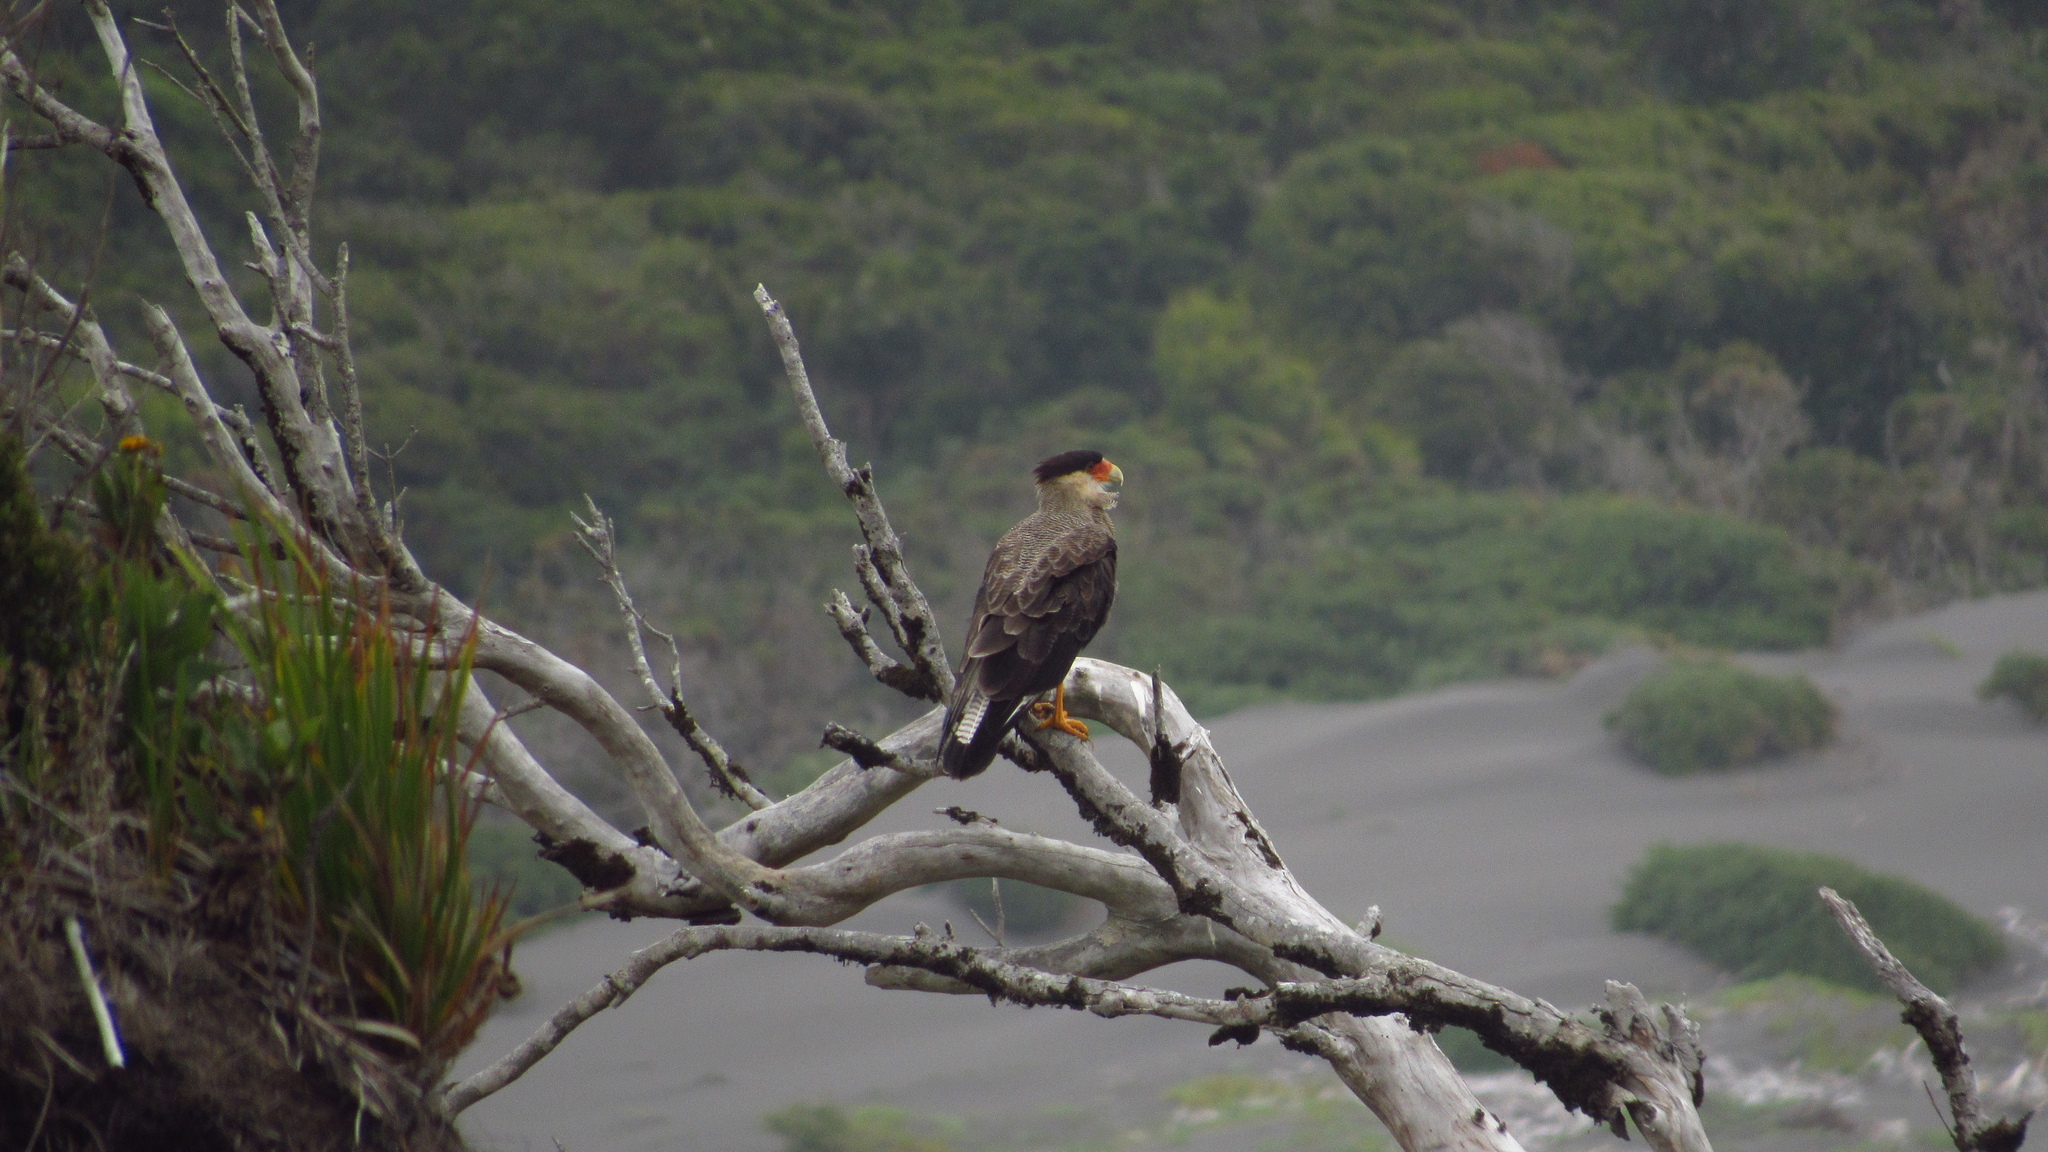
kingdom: Animalia
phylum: Chordata
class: Aves
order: Falconiformes
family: Falconidae
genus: Caracara
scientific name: Caracara plancus
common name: Southern caracara
